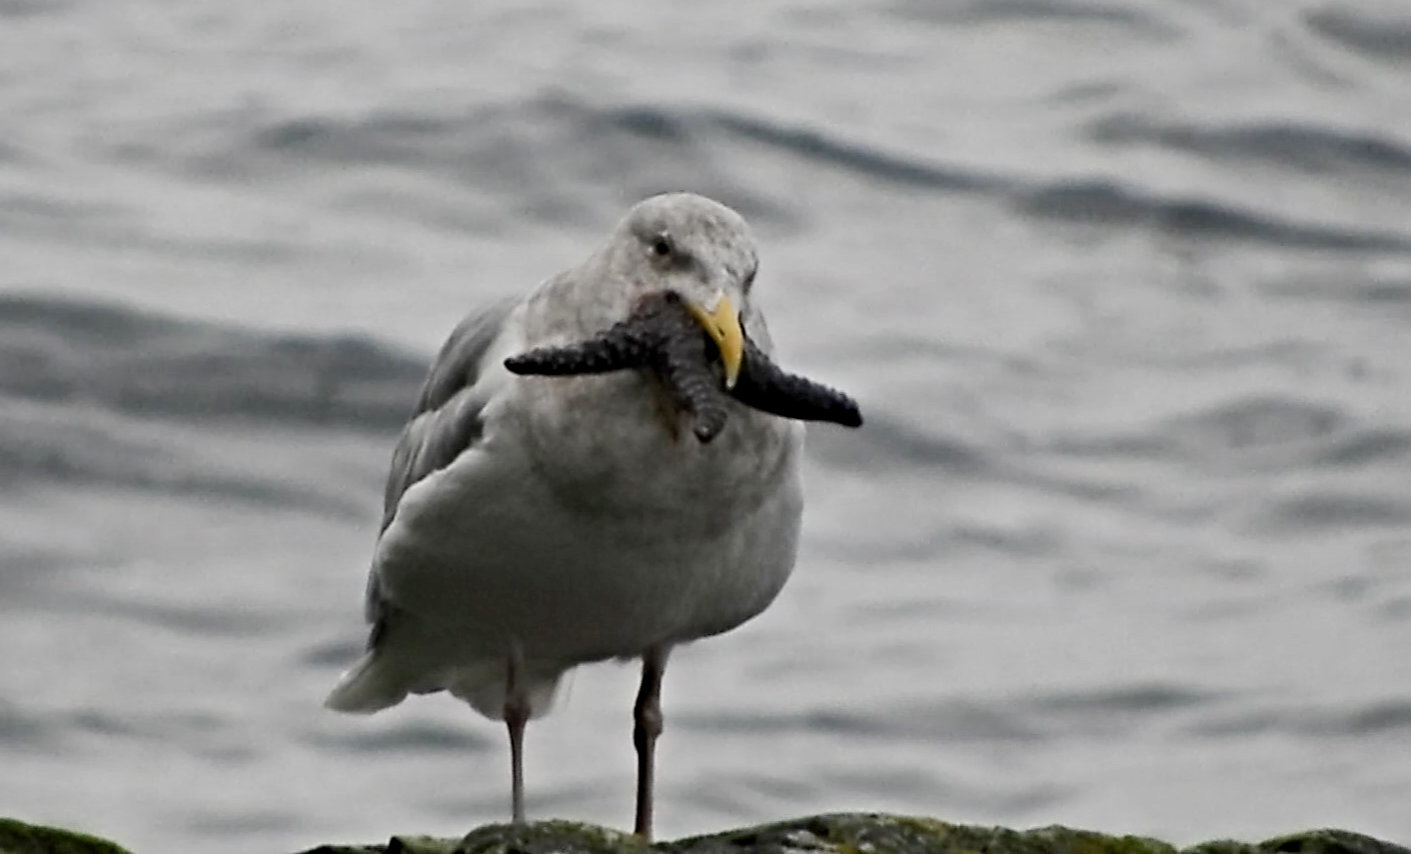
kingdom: Animalia
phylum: Chordata
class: Aves
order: Charadriiformes
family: Laridae
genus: Larus
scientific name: Larus
